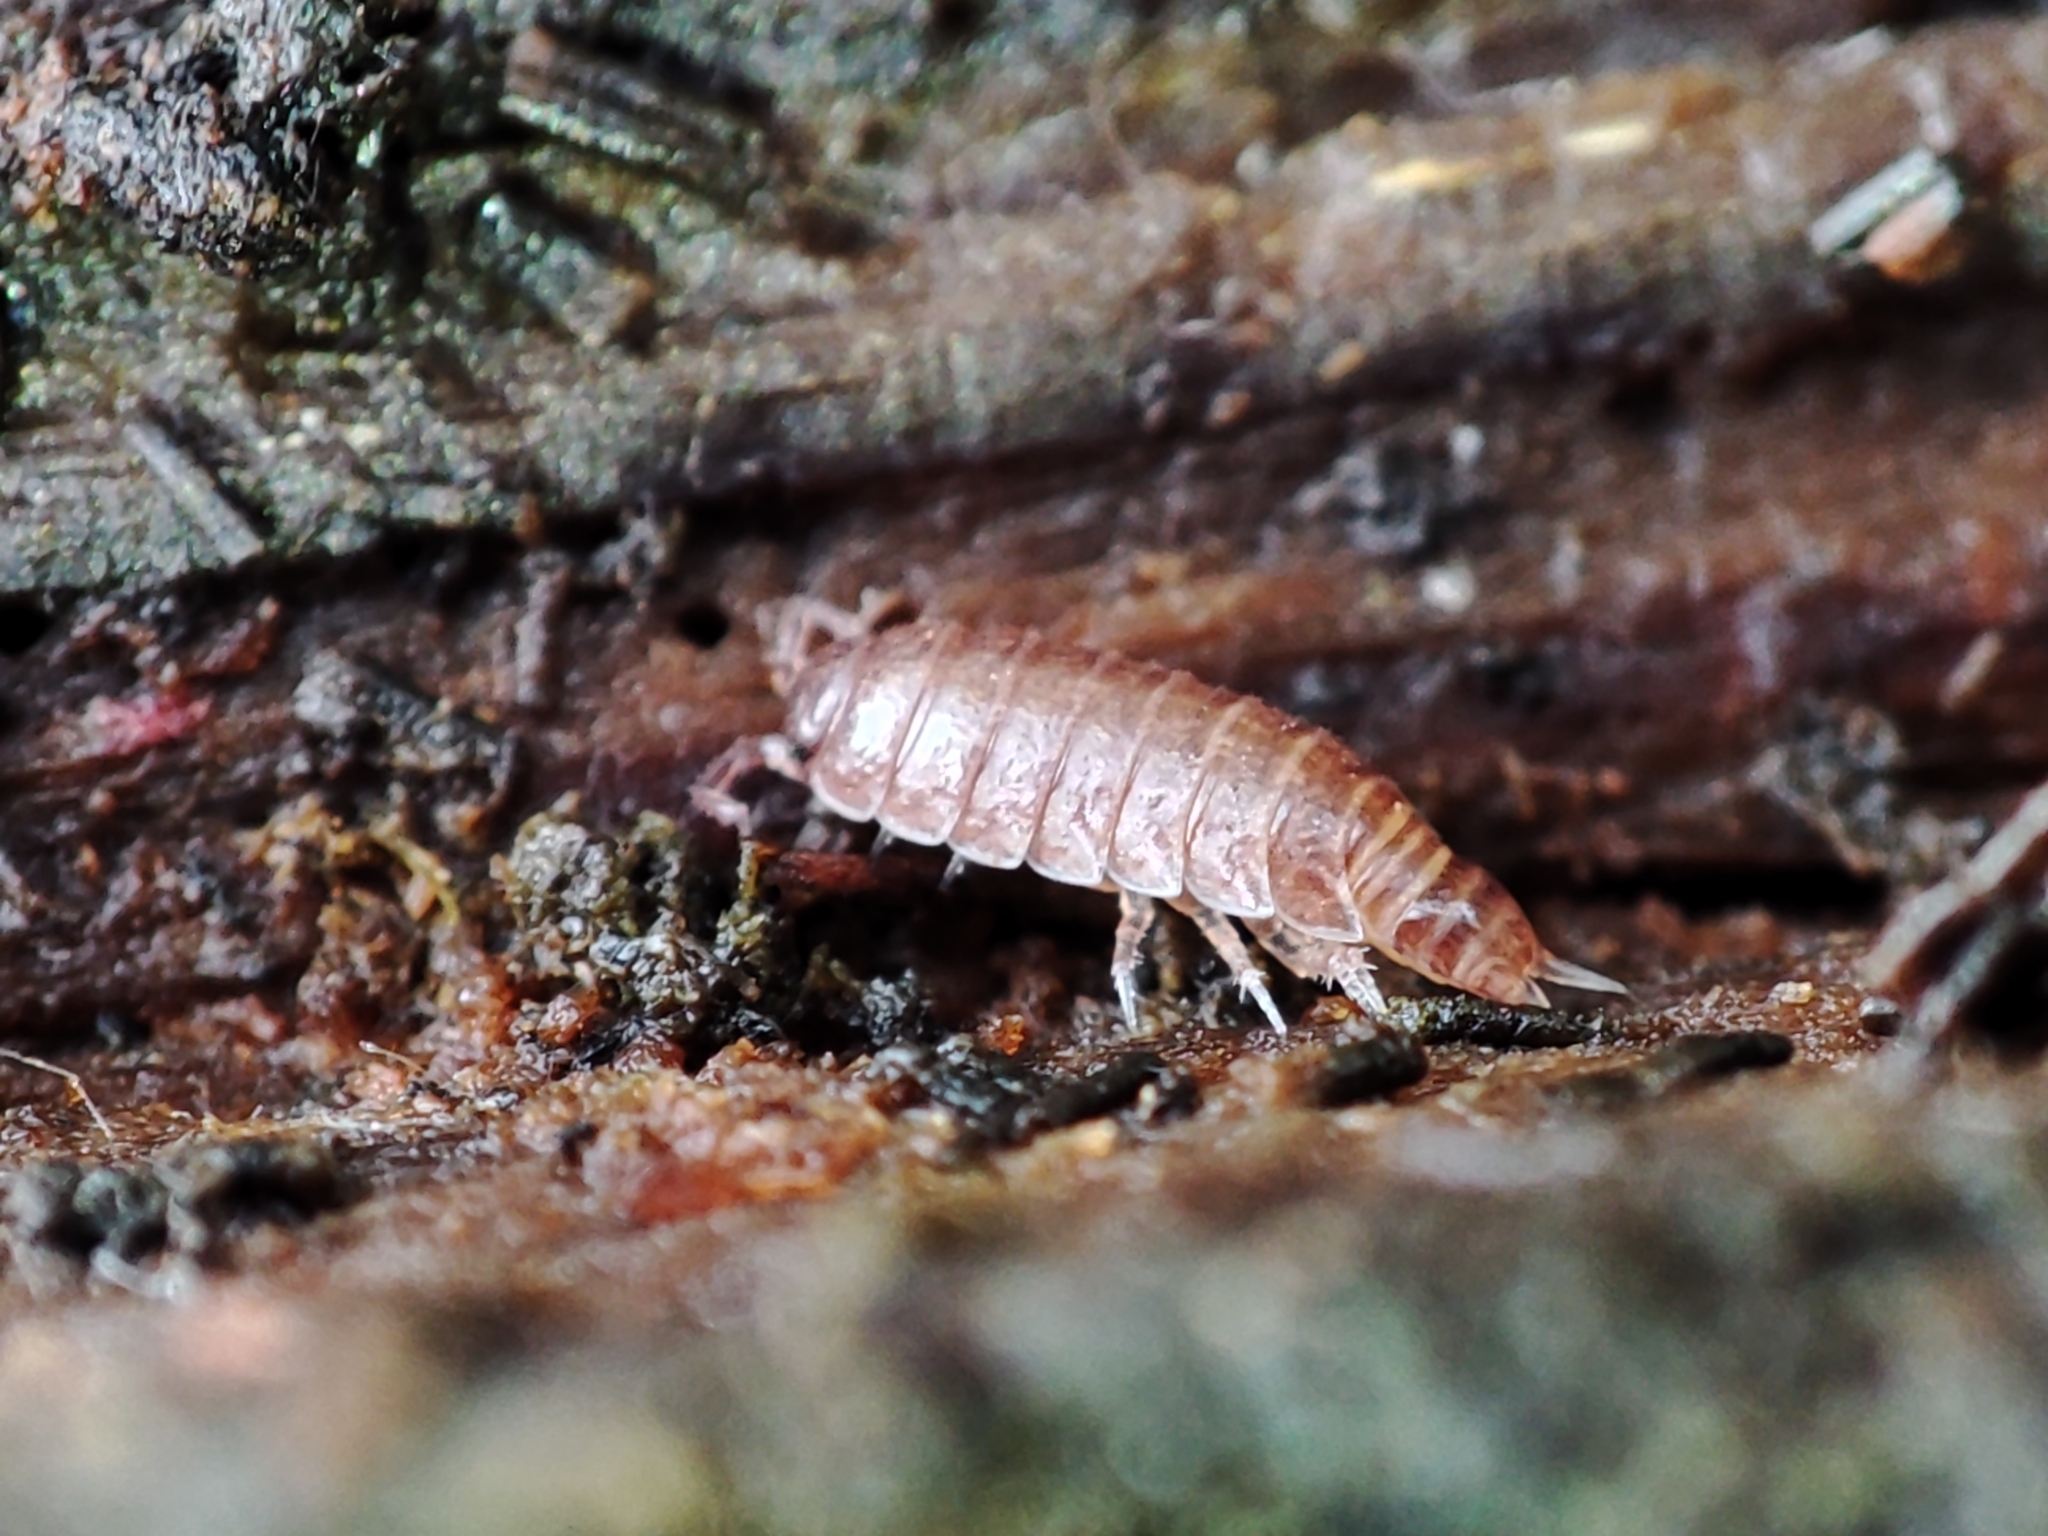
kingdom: Animalia
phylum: Arthropoda
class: Malacostraca
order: Isopoda
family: Trichoniscidae
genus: Hyloniscus
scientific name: Hyloniscus riparius
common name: Isopod
